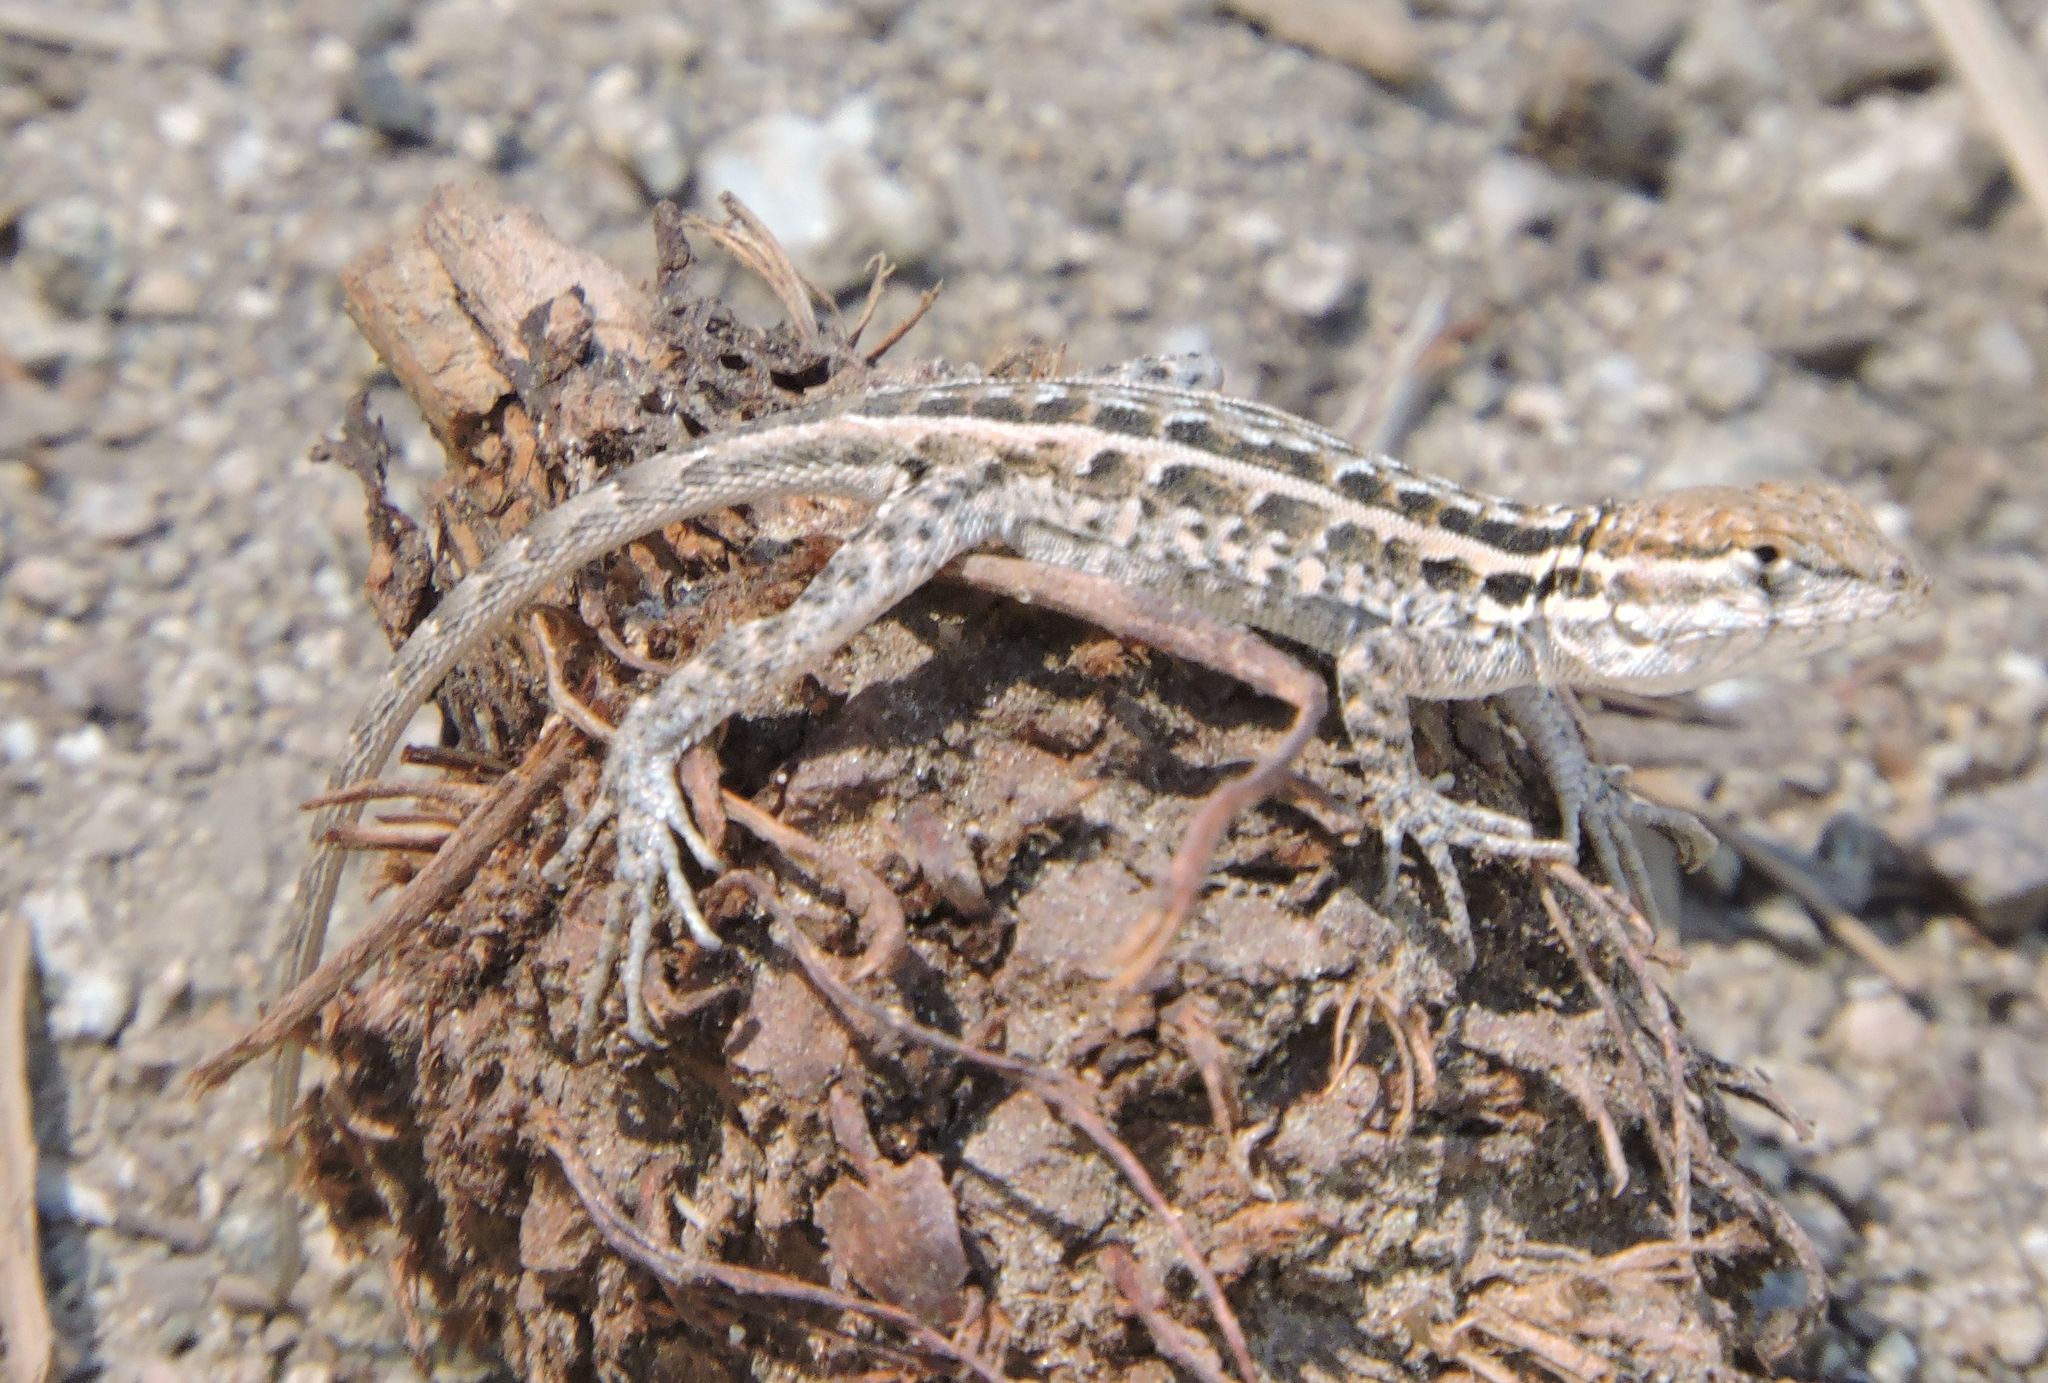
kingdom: Animalia
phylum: Chordata
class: Squamata
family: Phrynosomatidae
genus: Uta
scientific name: Uta stansburiana
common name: Side-blotched lizard
